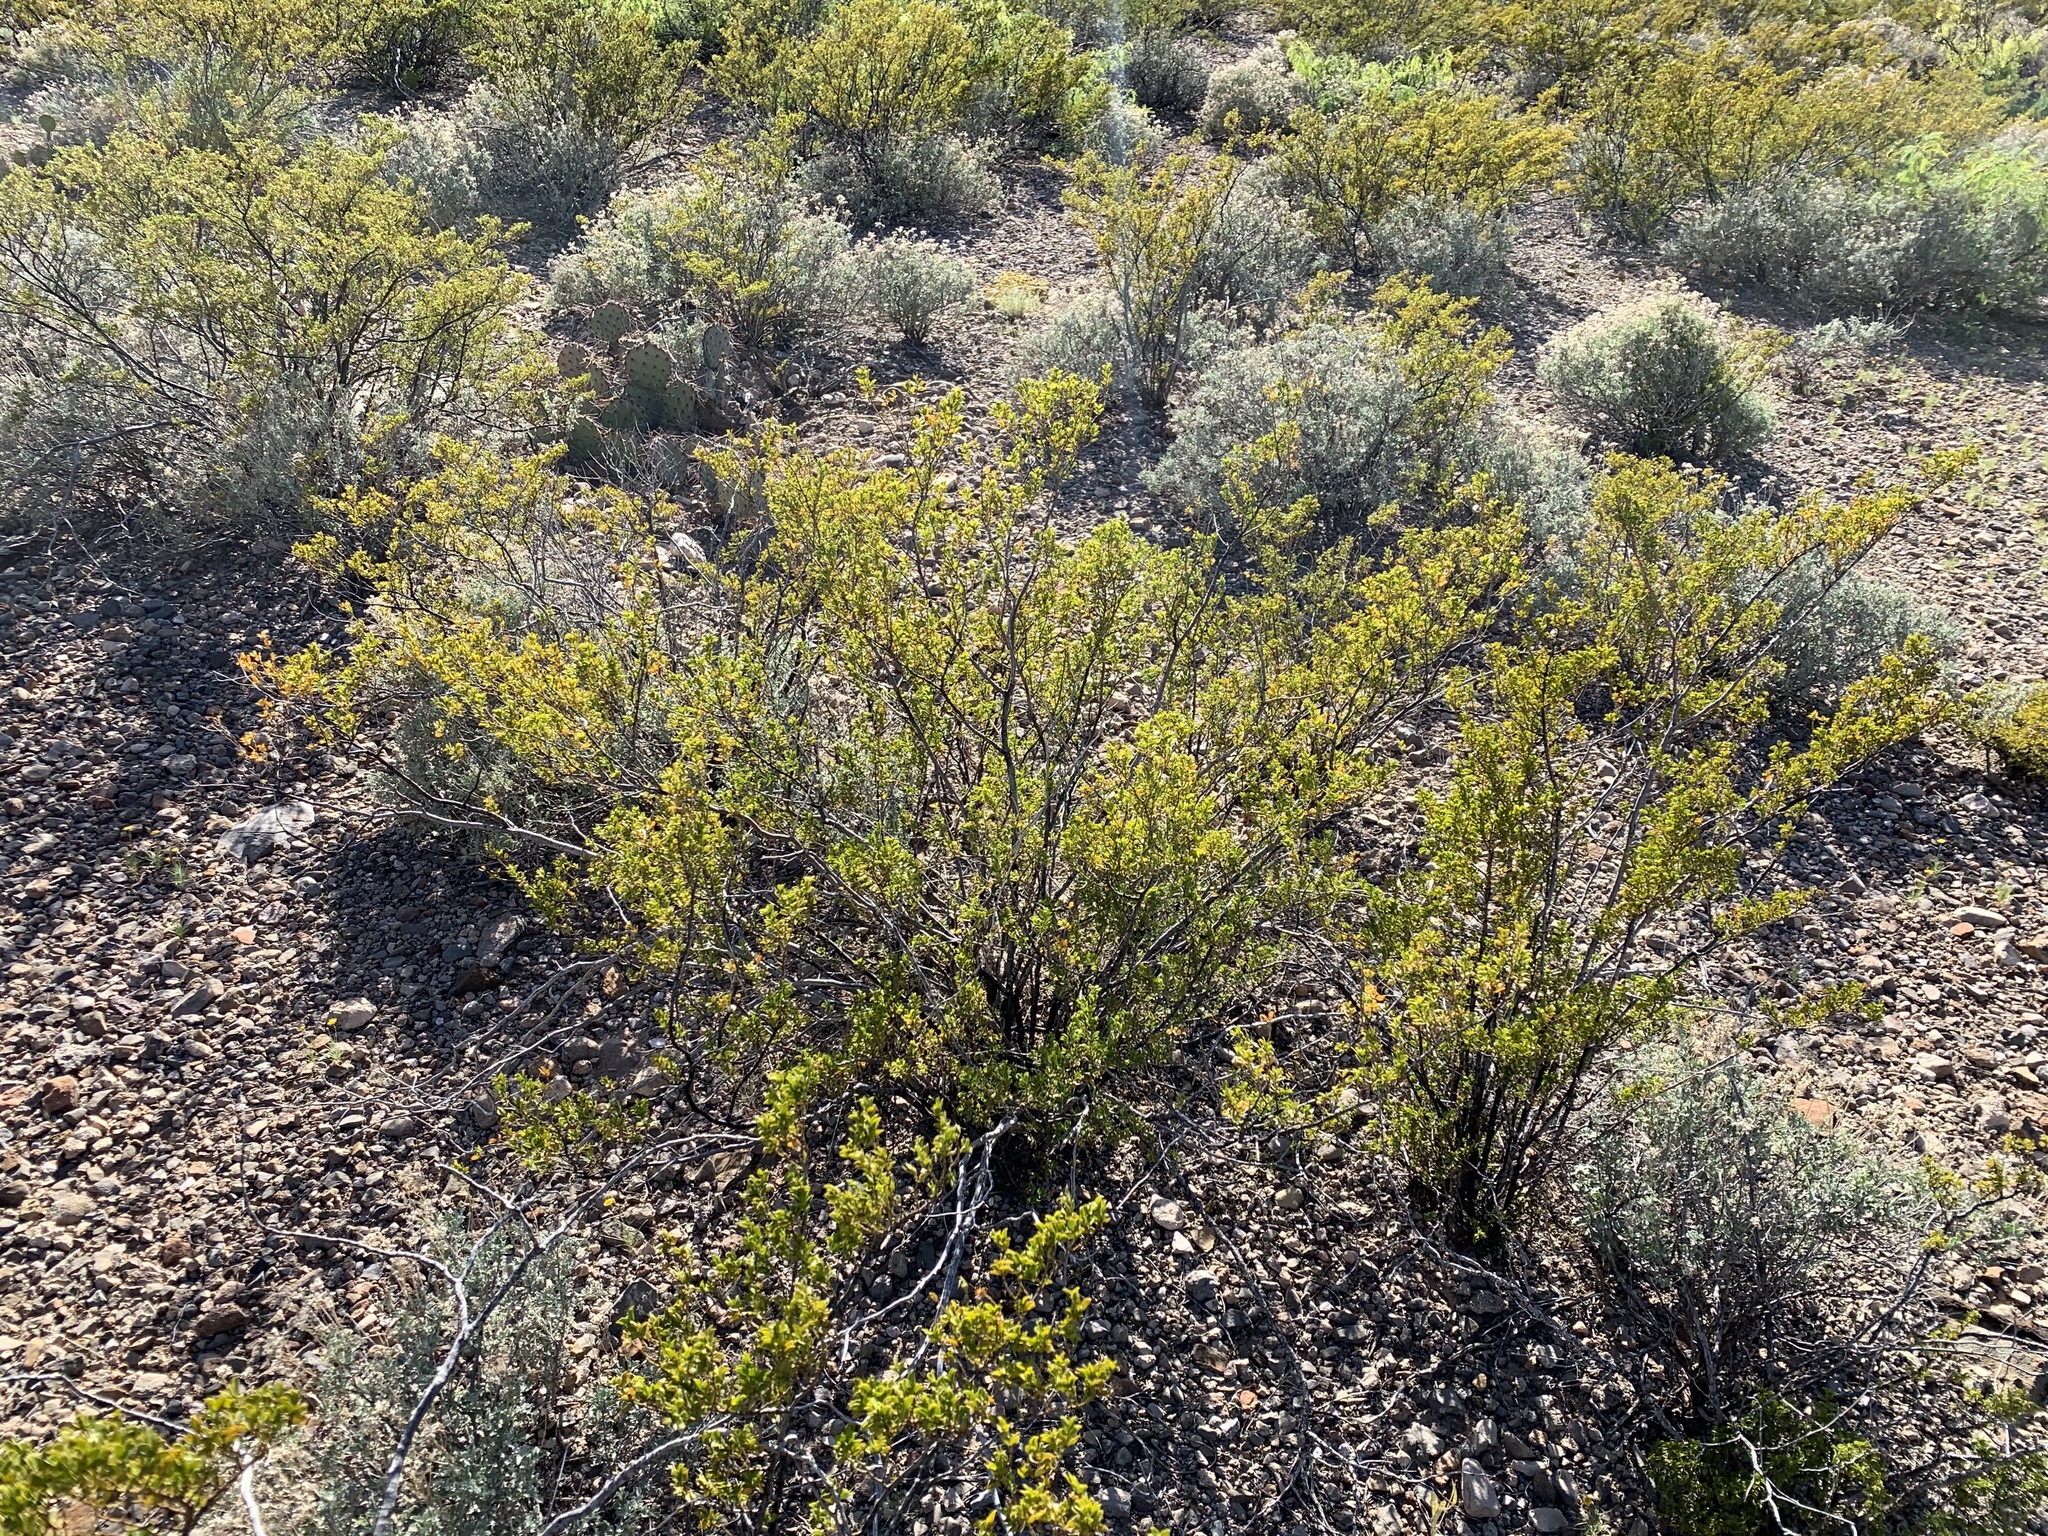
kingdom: Plantae
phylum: Tracheophyta
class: Magnoliopsida
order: Zygophyllales
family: Zygophyllaceae
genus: Larrea
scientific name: Larrea tridentata
